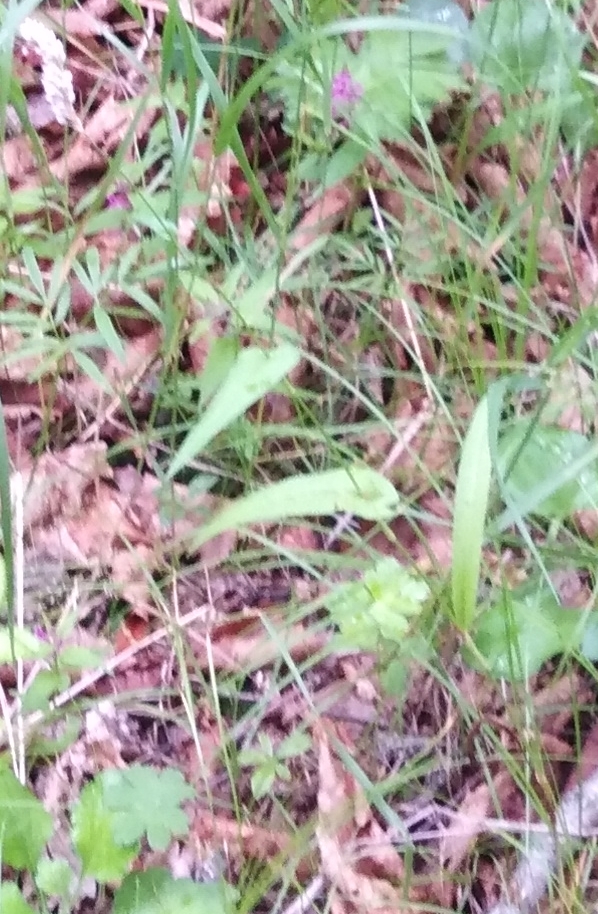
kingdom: Plantae
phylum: Tracheophyta
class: Magnoliopsida
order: Caryophyllales
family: Polygonaceae
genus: Bistorta
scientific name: Bistorta manshuriensis
